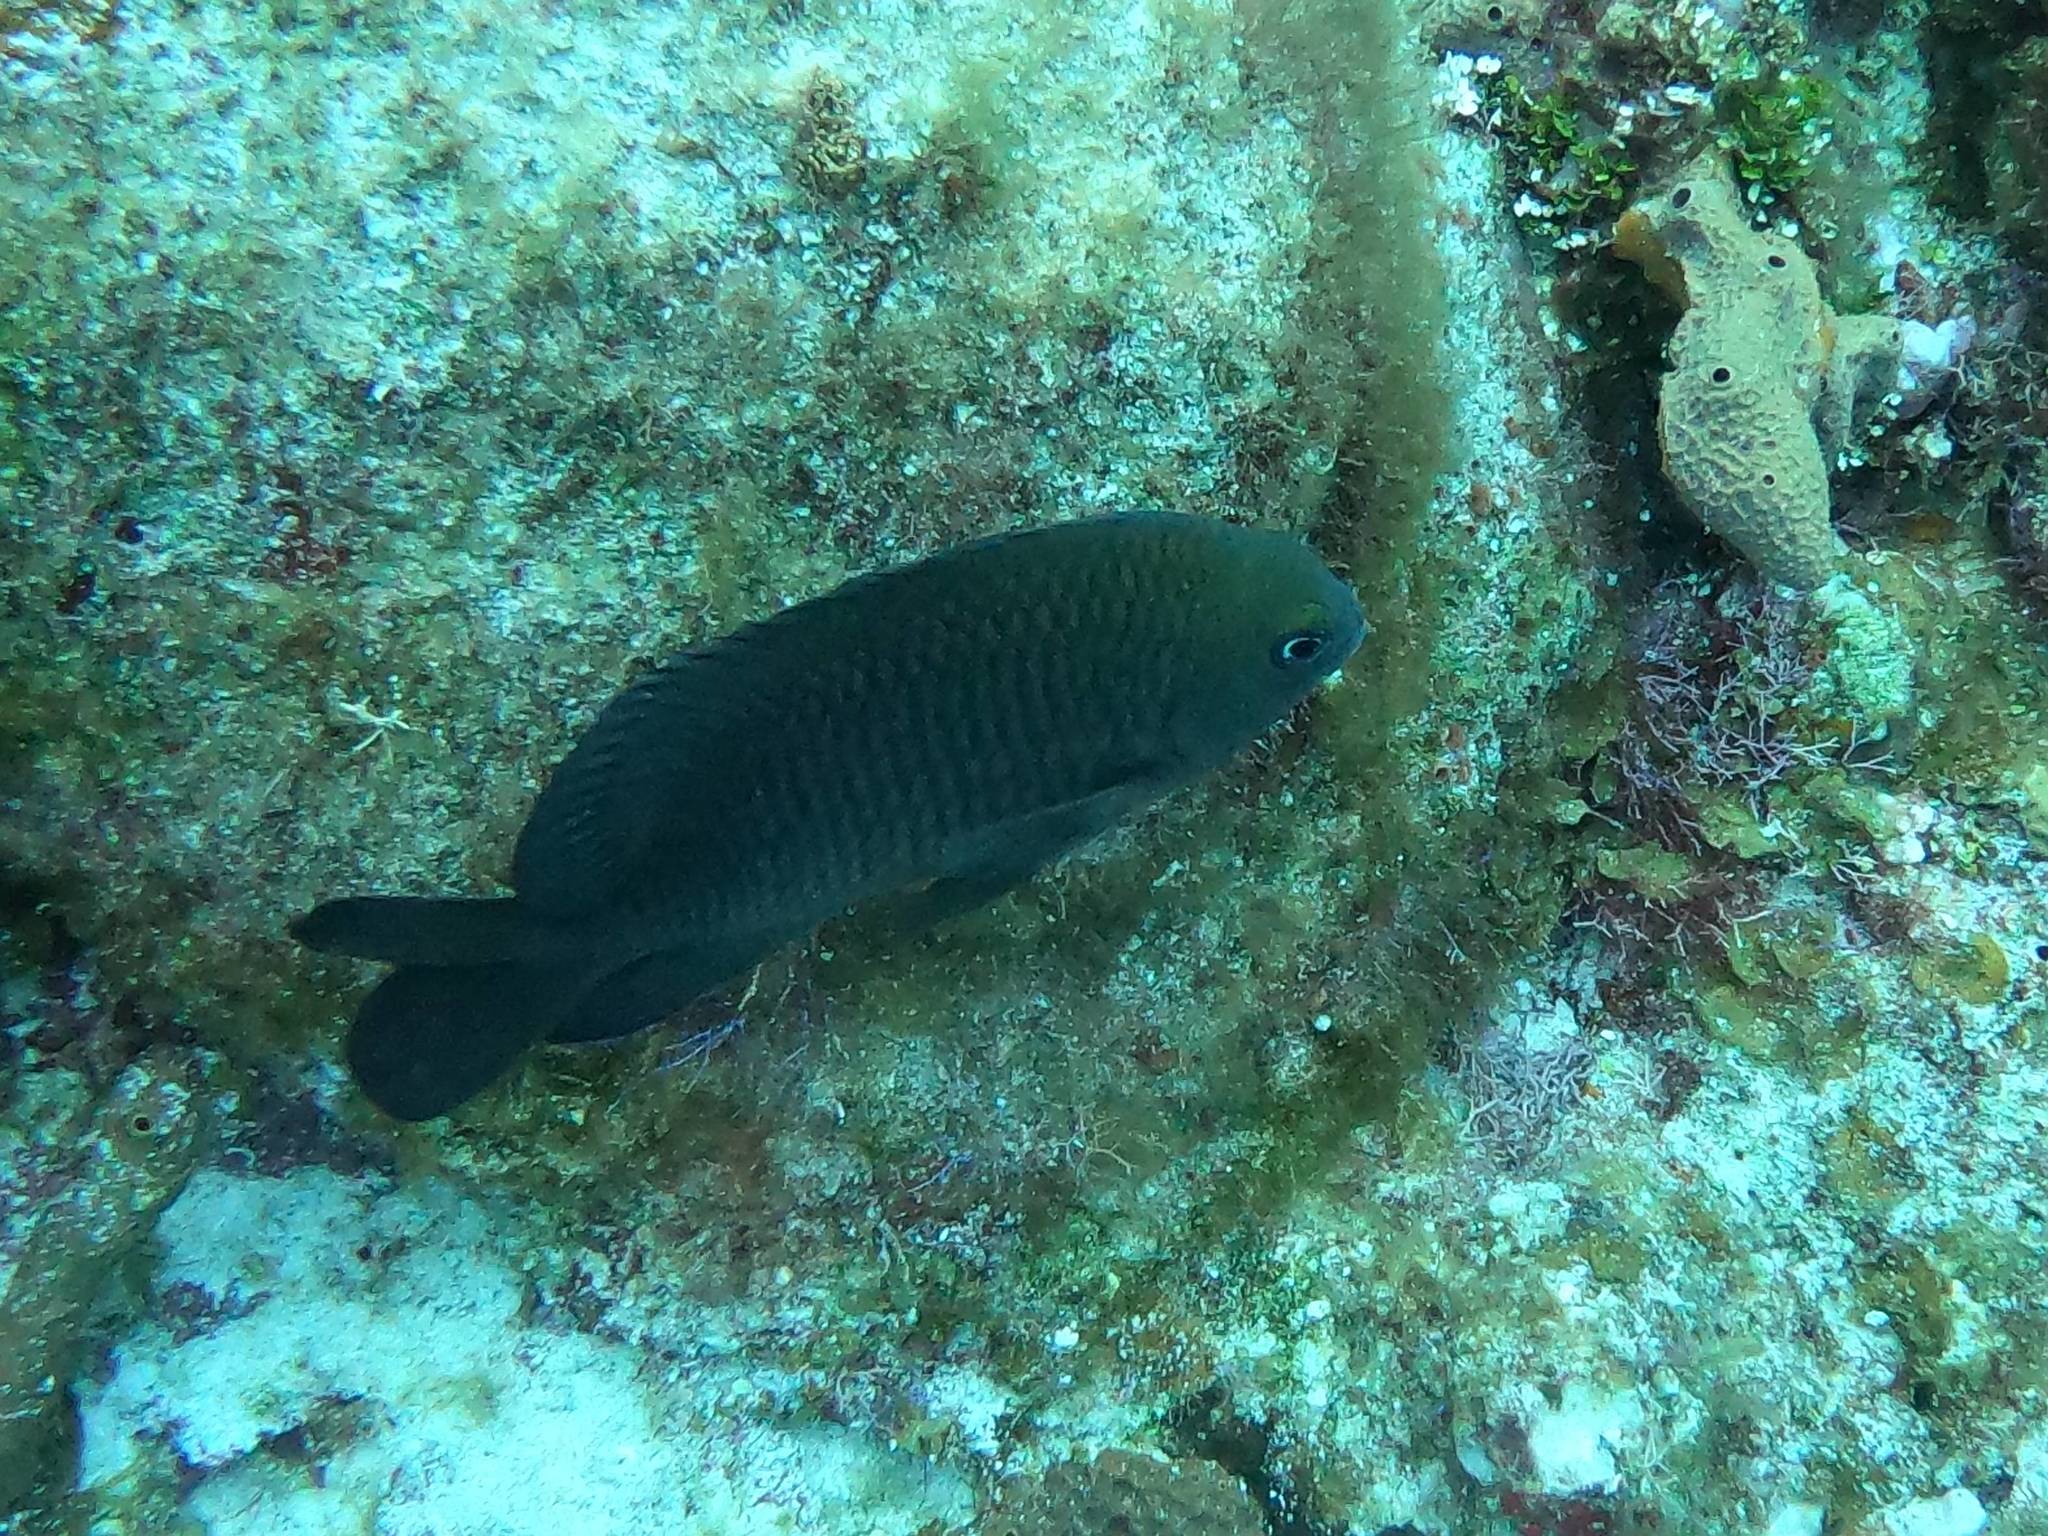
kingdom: Animalia
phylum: Chordata
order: Perciformes
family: Pomacentridae
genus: Stegastes
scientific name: Stegastes diencaeus
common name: Longfin damselfish
